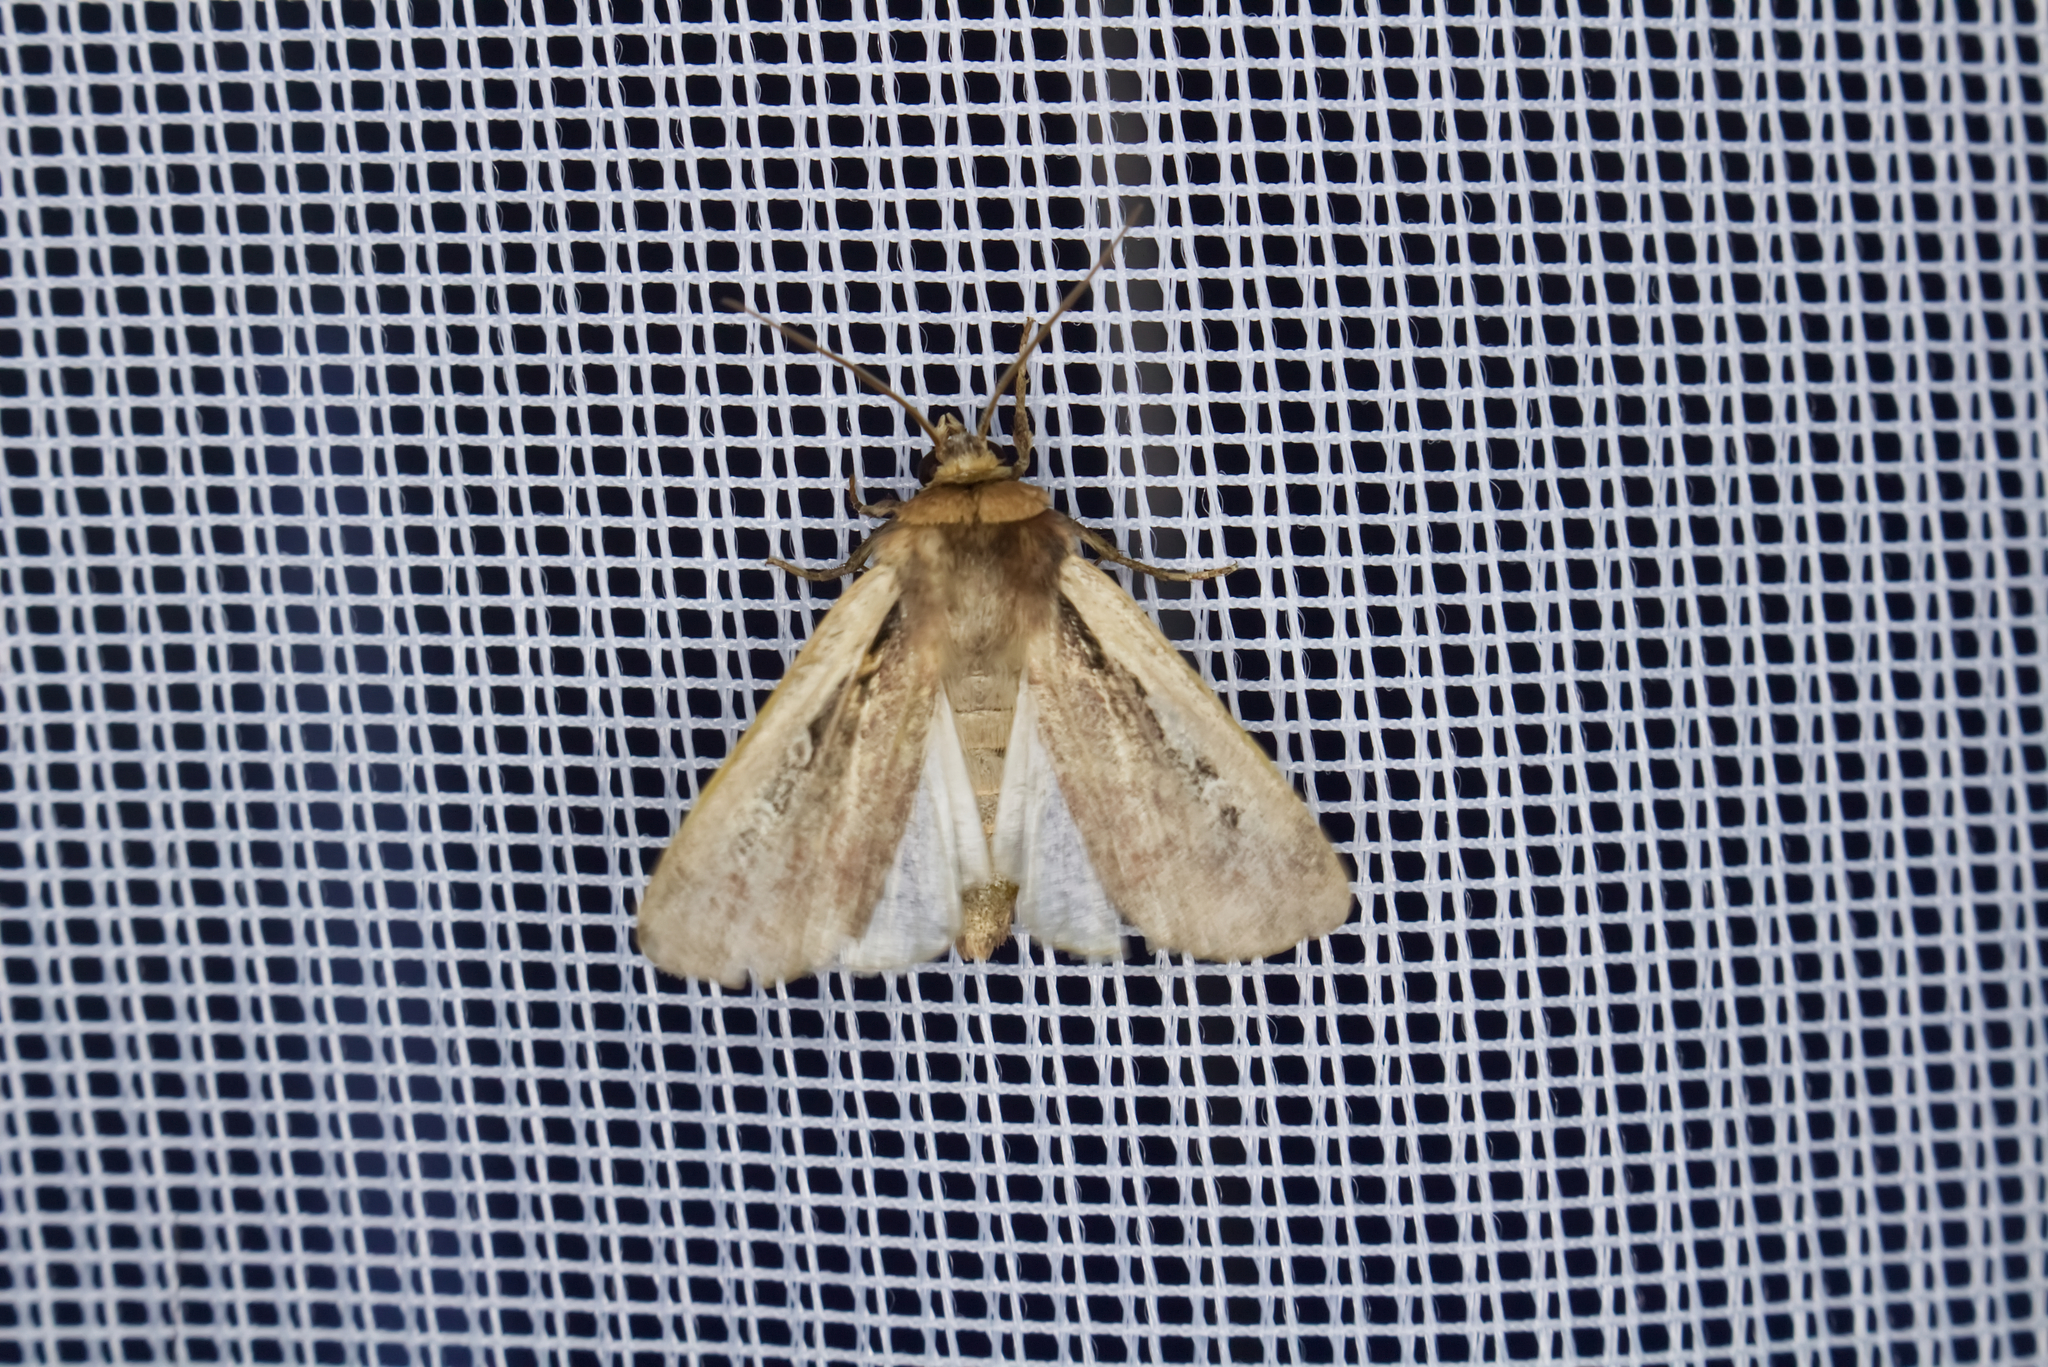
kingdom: Animalia
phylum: Arthropoda
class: Insecta
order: Lepidoptera
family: Noctuidae
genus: Ochropleura
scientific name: Ochropleura plecta
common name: Flame shoulder
